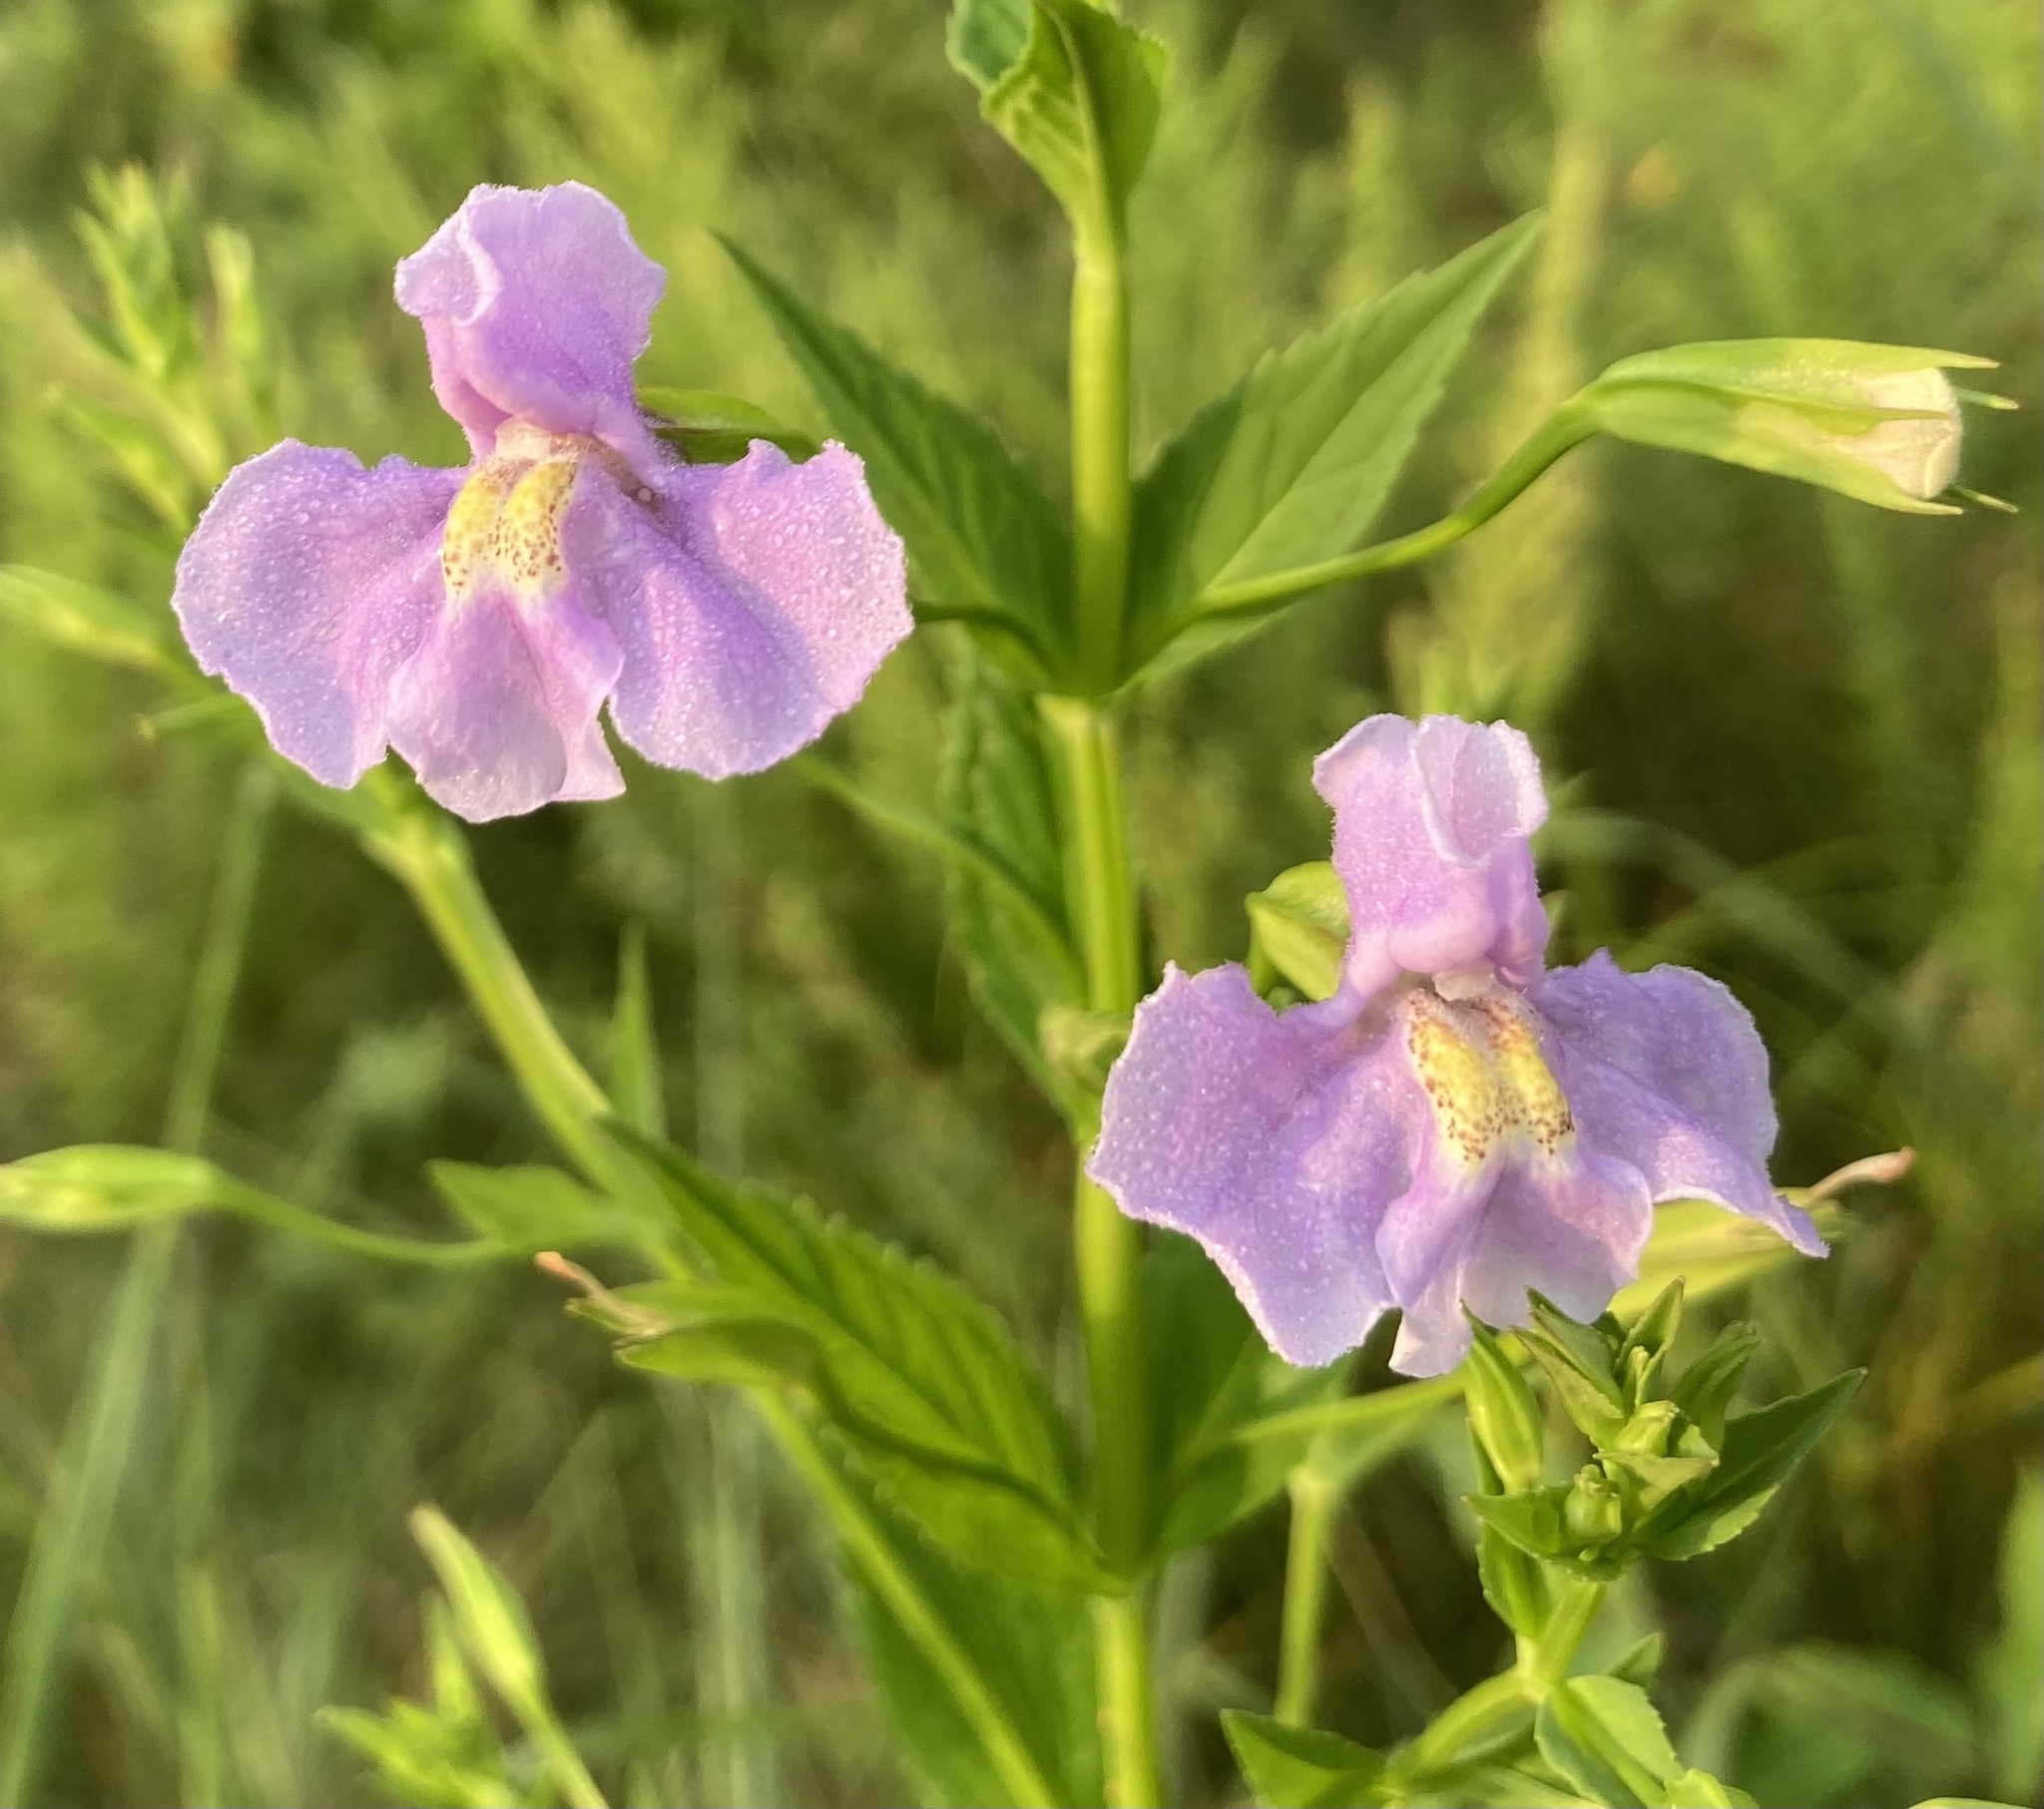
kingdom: Plantae
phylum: Tracheophyta
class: Magnoliopsida
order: Lamiales
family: Phrymaceae
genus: Mimulus
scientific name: Mimulus ringens
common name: Allegheny monkeyflower
